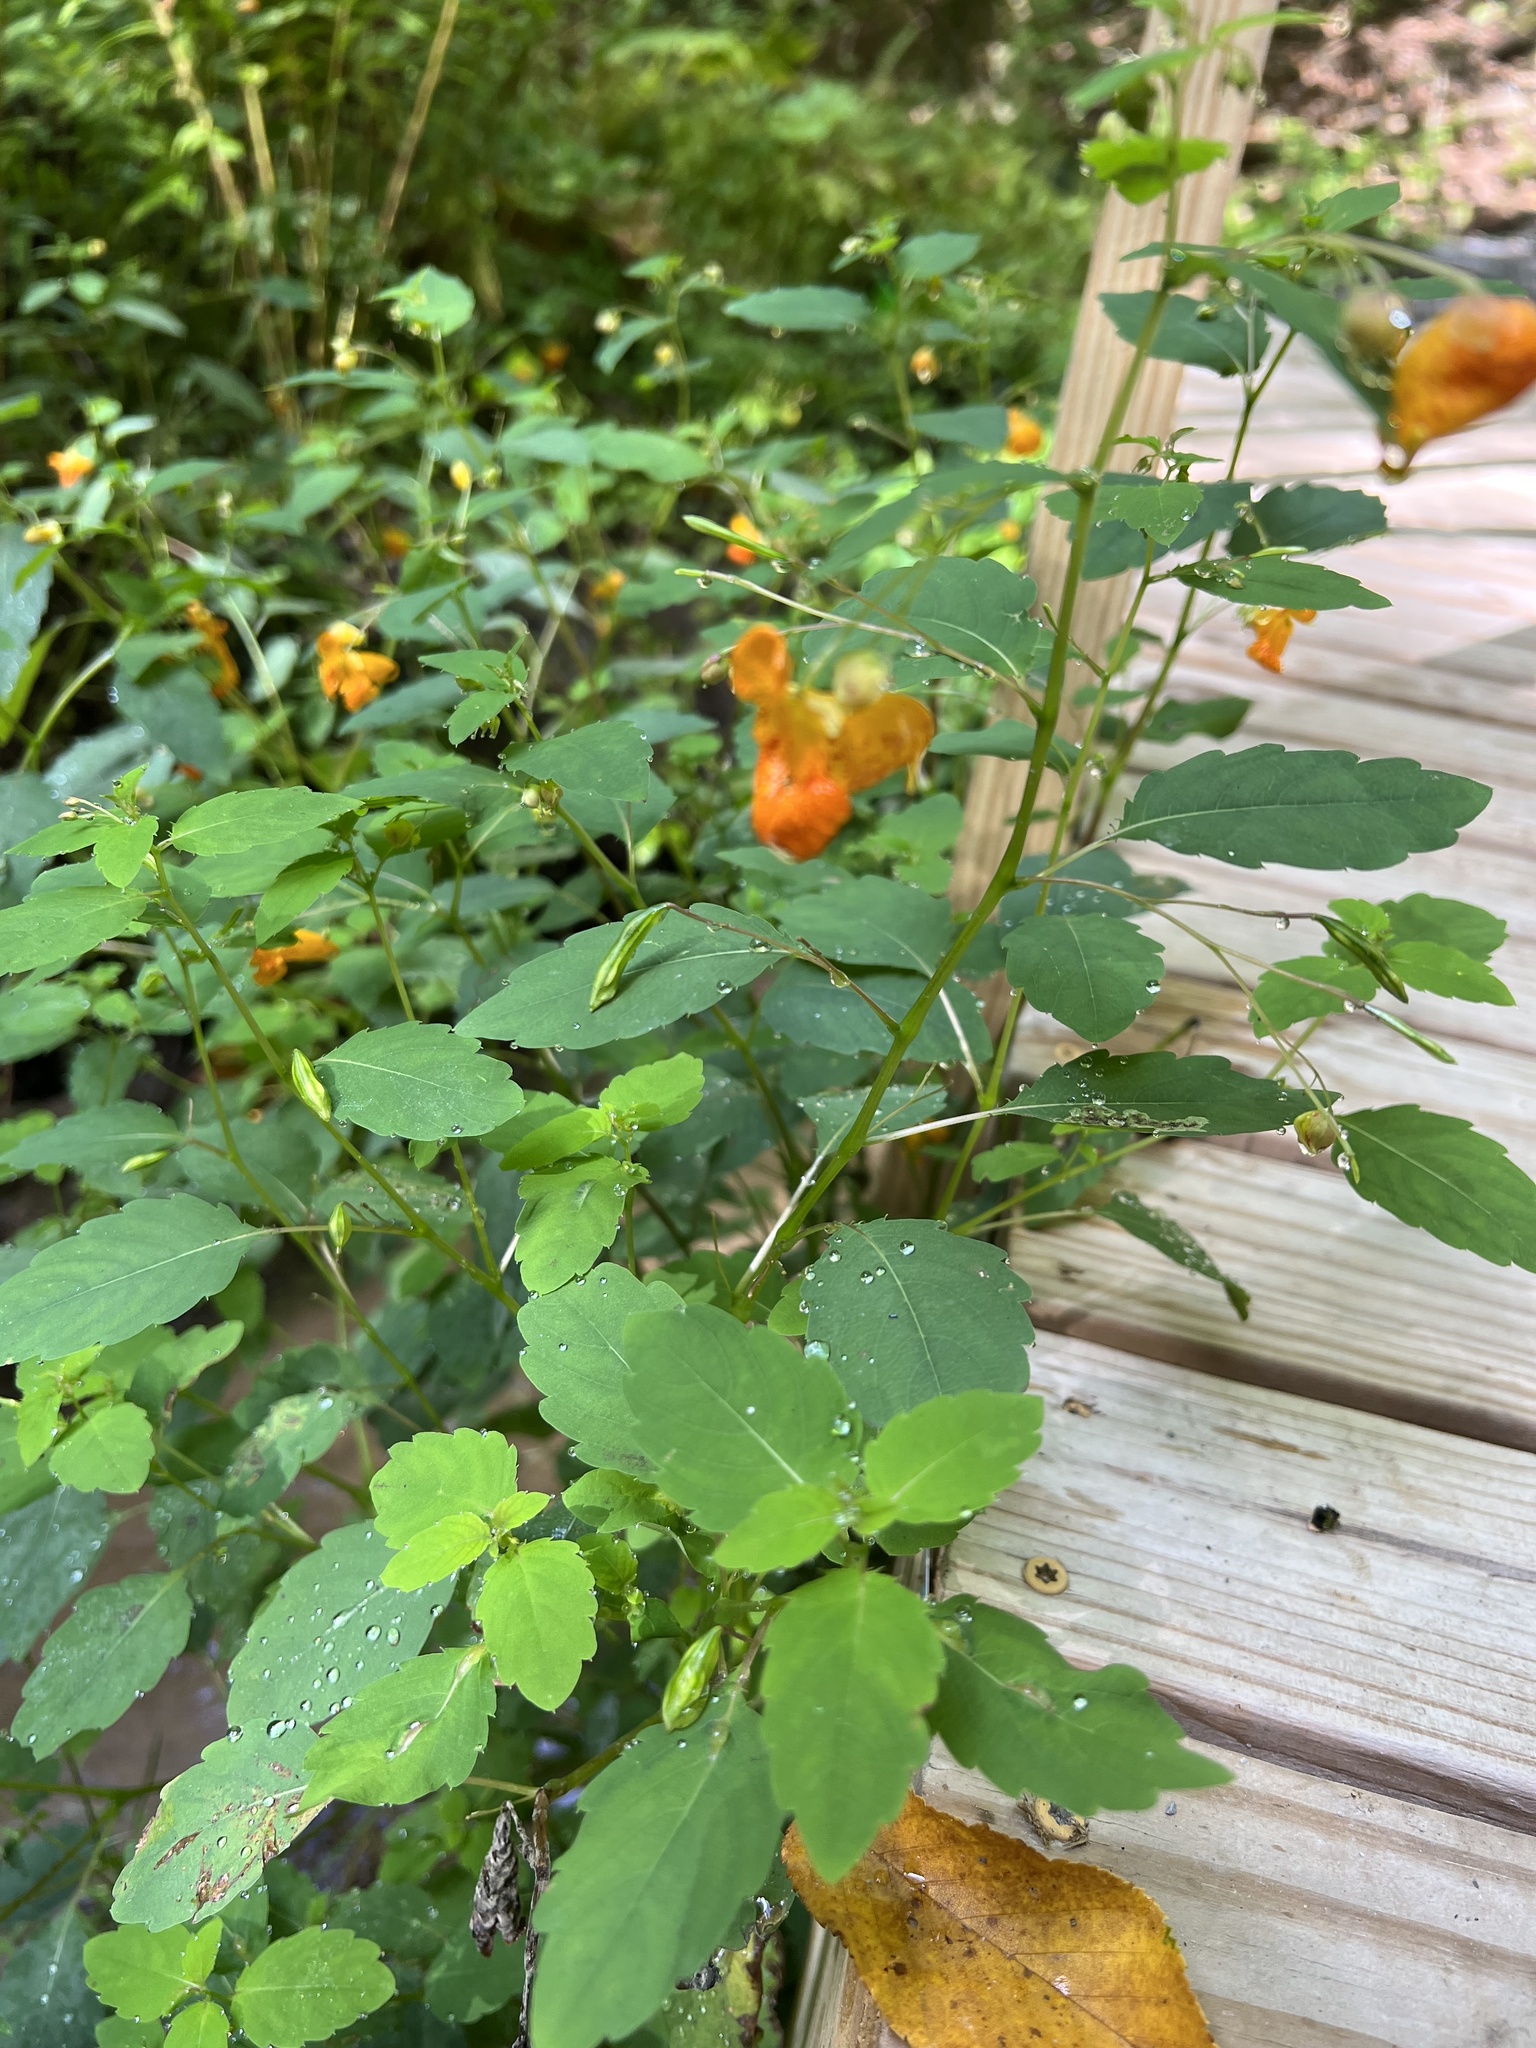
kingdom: Plantae
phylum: Tracheophyta
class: Magnoliopsida
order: Ericales
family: Balsaminaceae
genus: Impatiens
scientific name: Impatiens capensis
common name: Orange balsam
